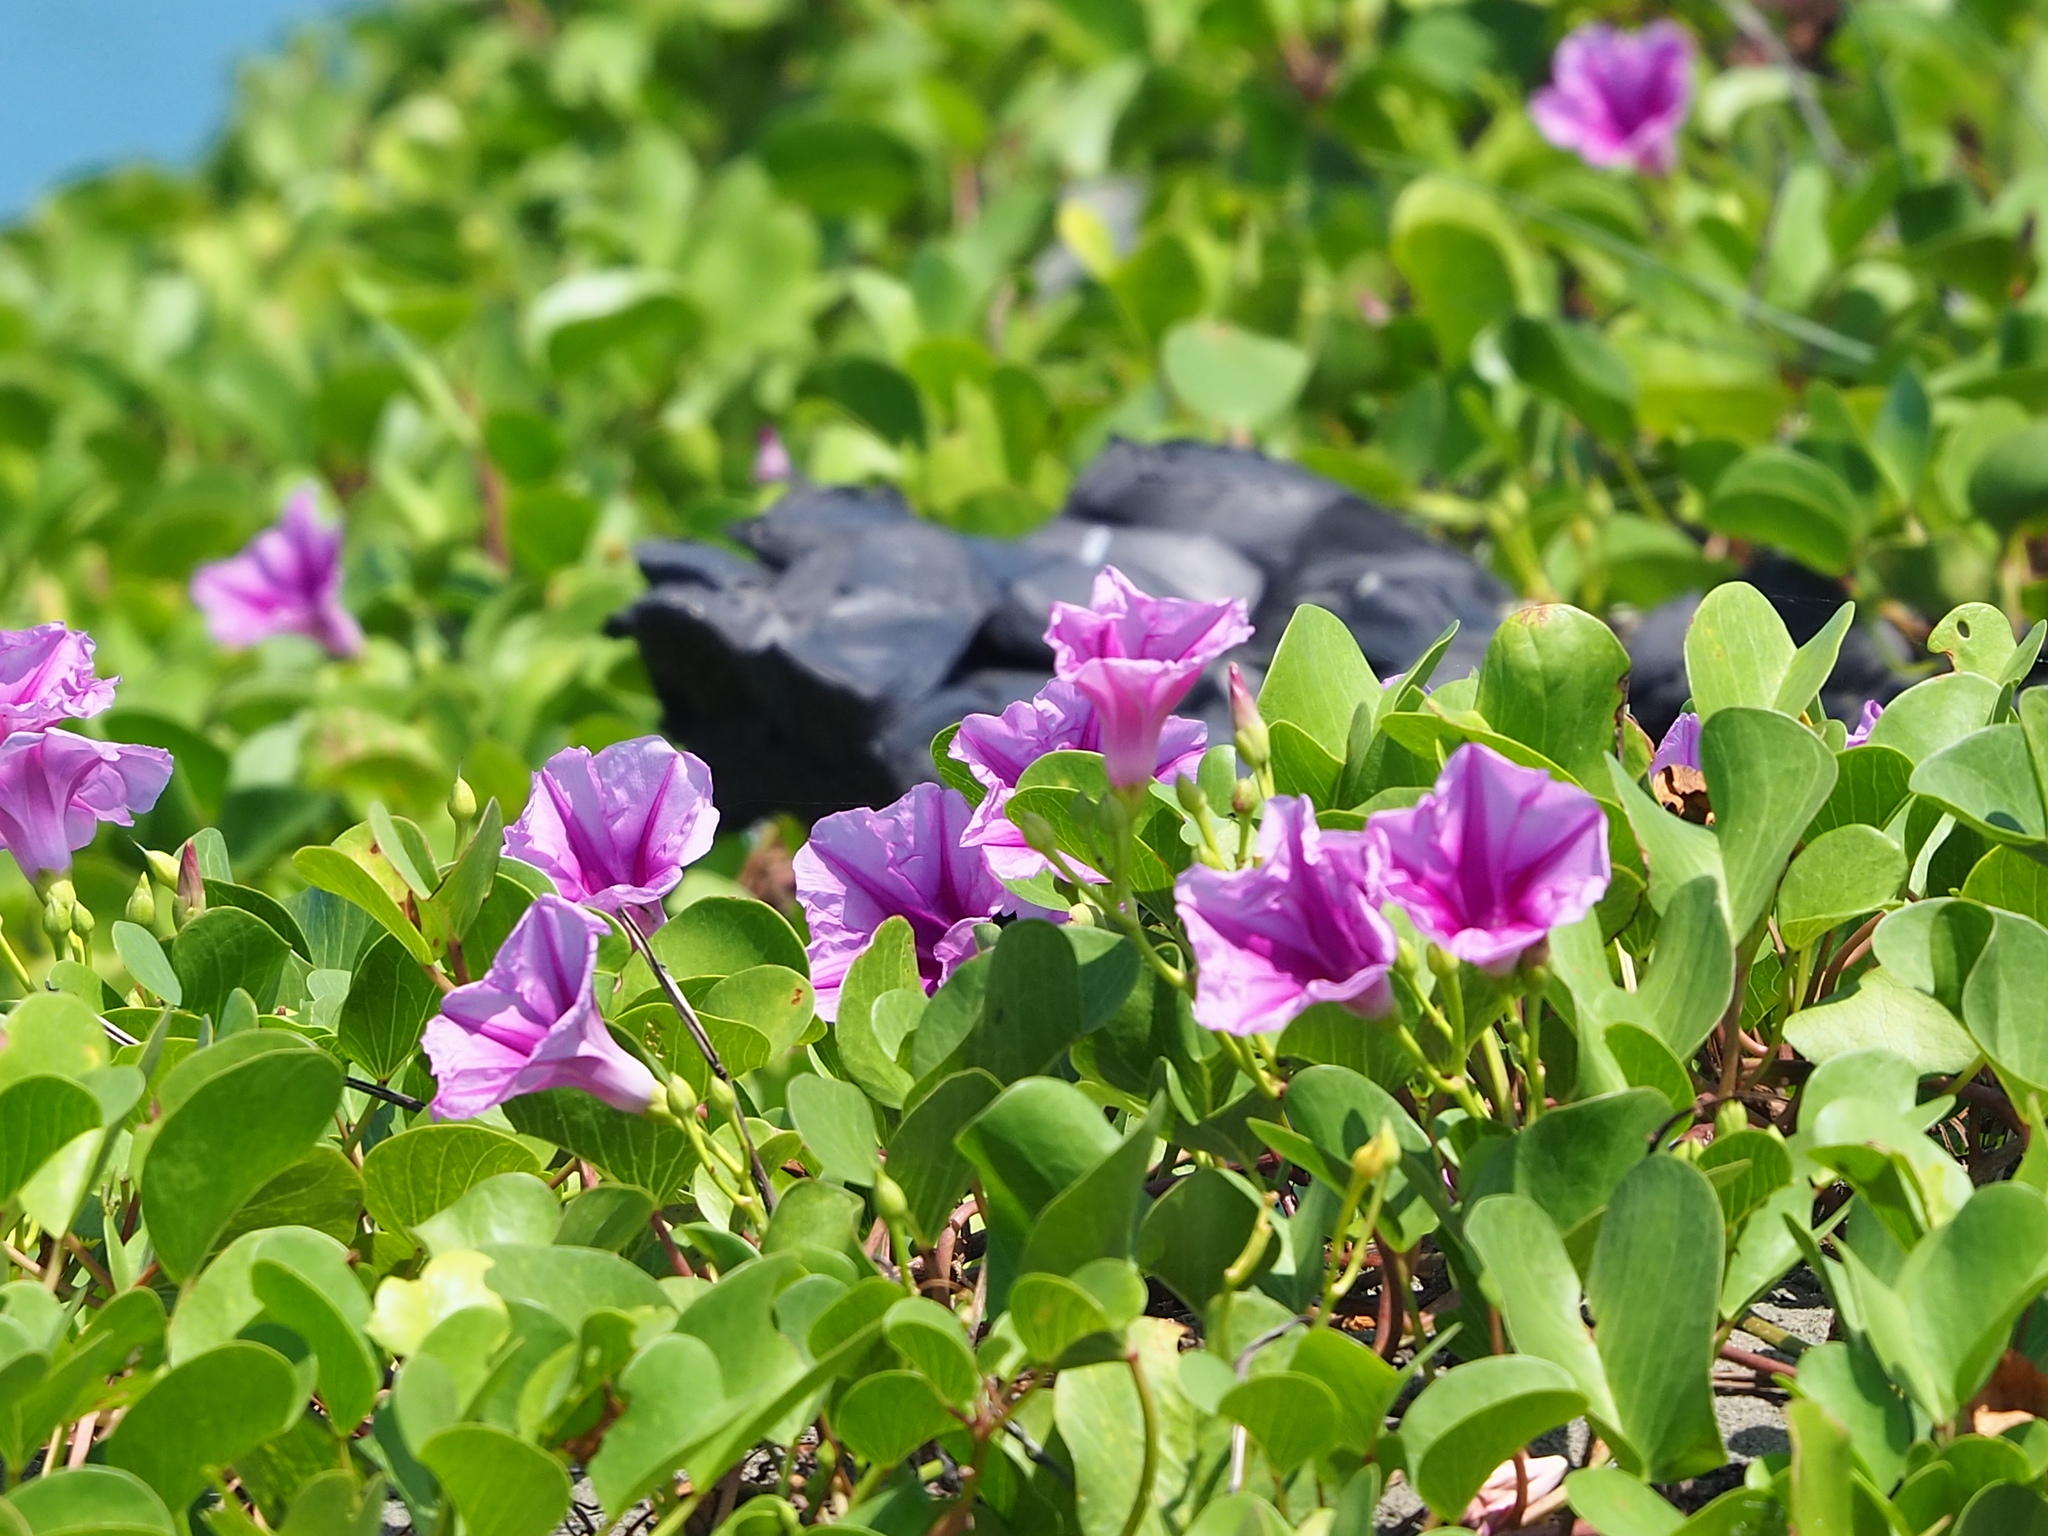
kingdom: Plantae
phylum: Tracheophyta
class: Magnoliopsida
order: Solanales
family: Convolvulaceae
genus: Ipomoea
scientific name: Ipomoea pes-caprae
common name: Beach morning glory
